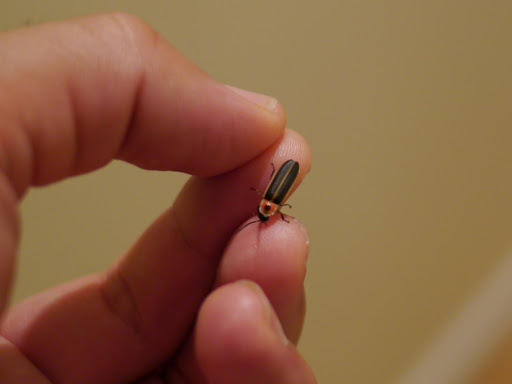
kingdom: Animalia
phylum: Arthropoda
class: Insecta
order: Coleoptera
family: Lampyridae
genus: Photinus
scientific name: Photinus pyralis
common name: Big dipper firefly
